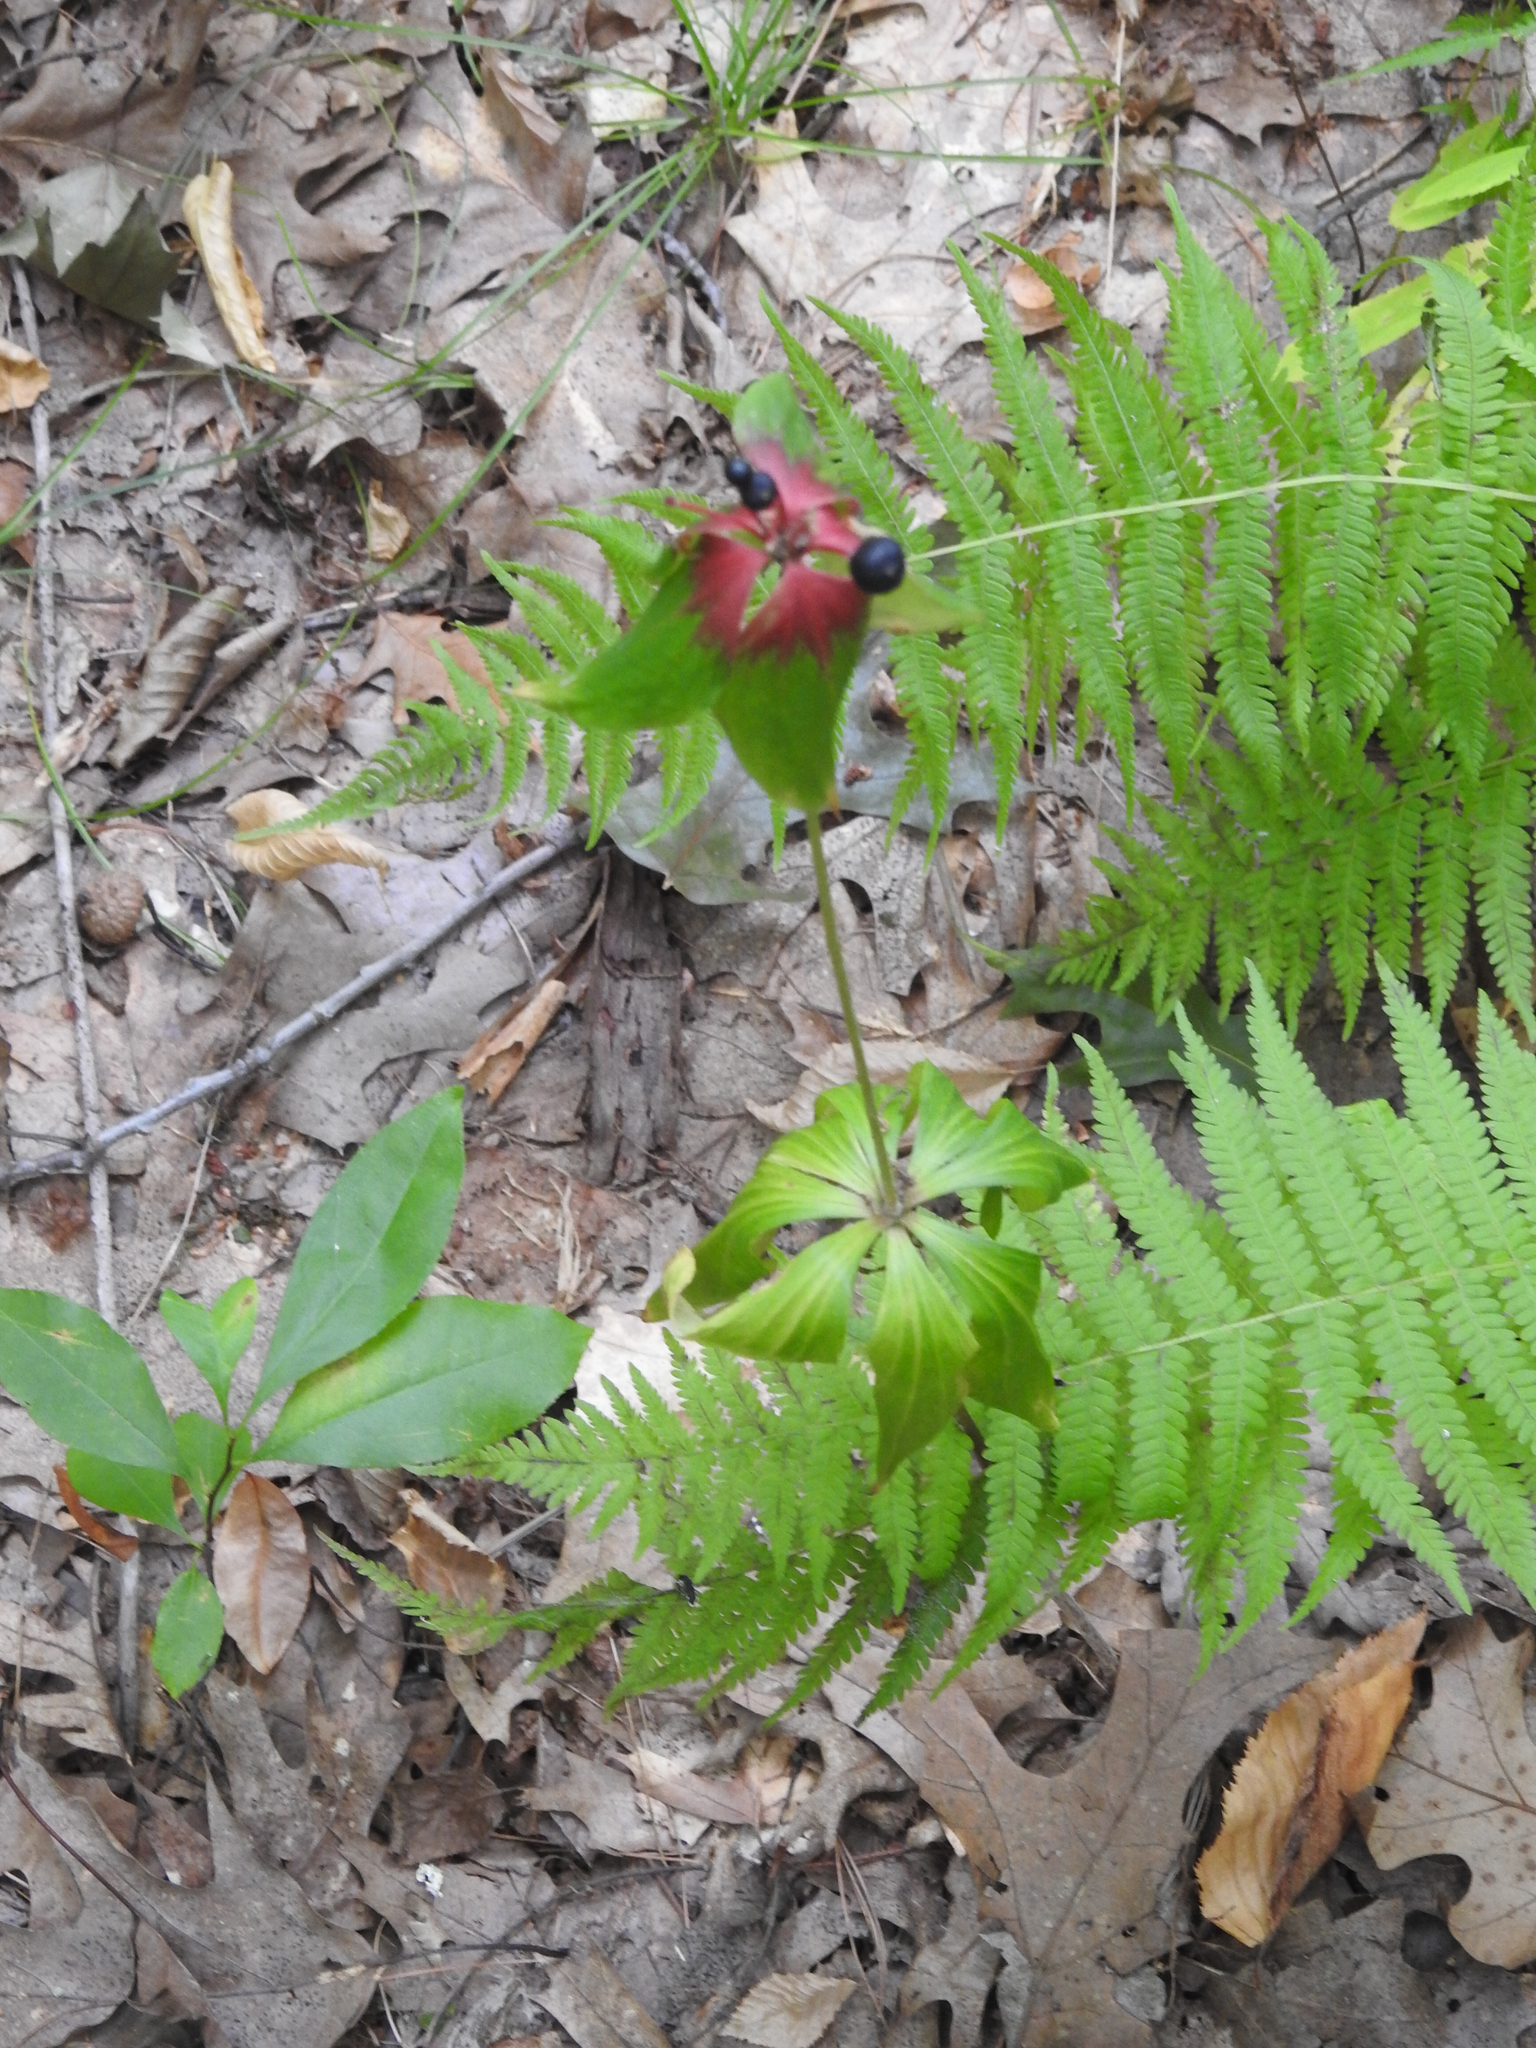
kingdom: Plantae
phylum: Tracheophyta
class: Liliopsida
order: Liliales
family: Liliaceae
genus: Medeola
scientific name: Medeola virginiana
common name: Indian cucumber-root
